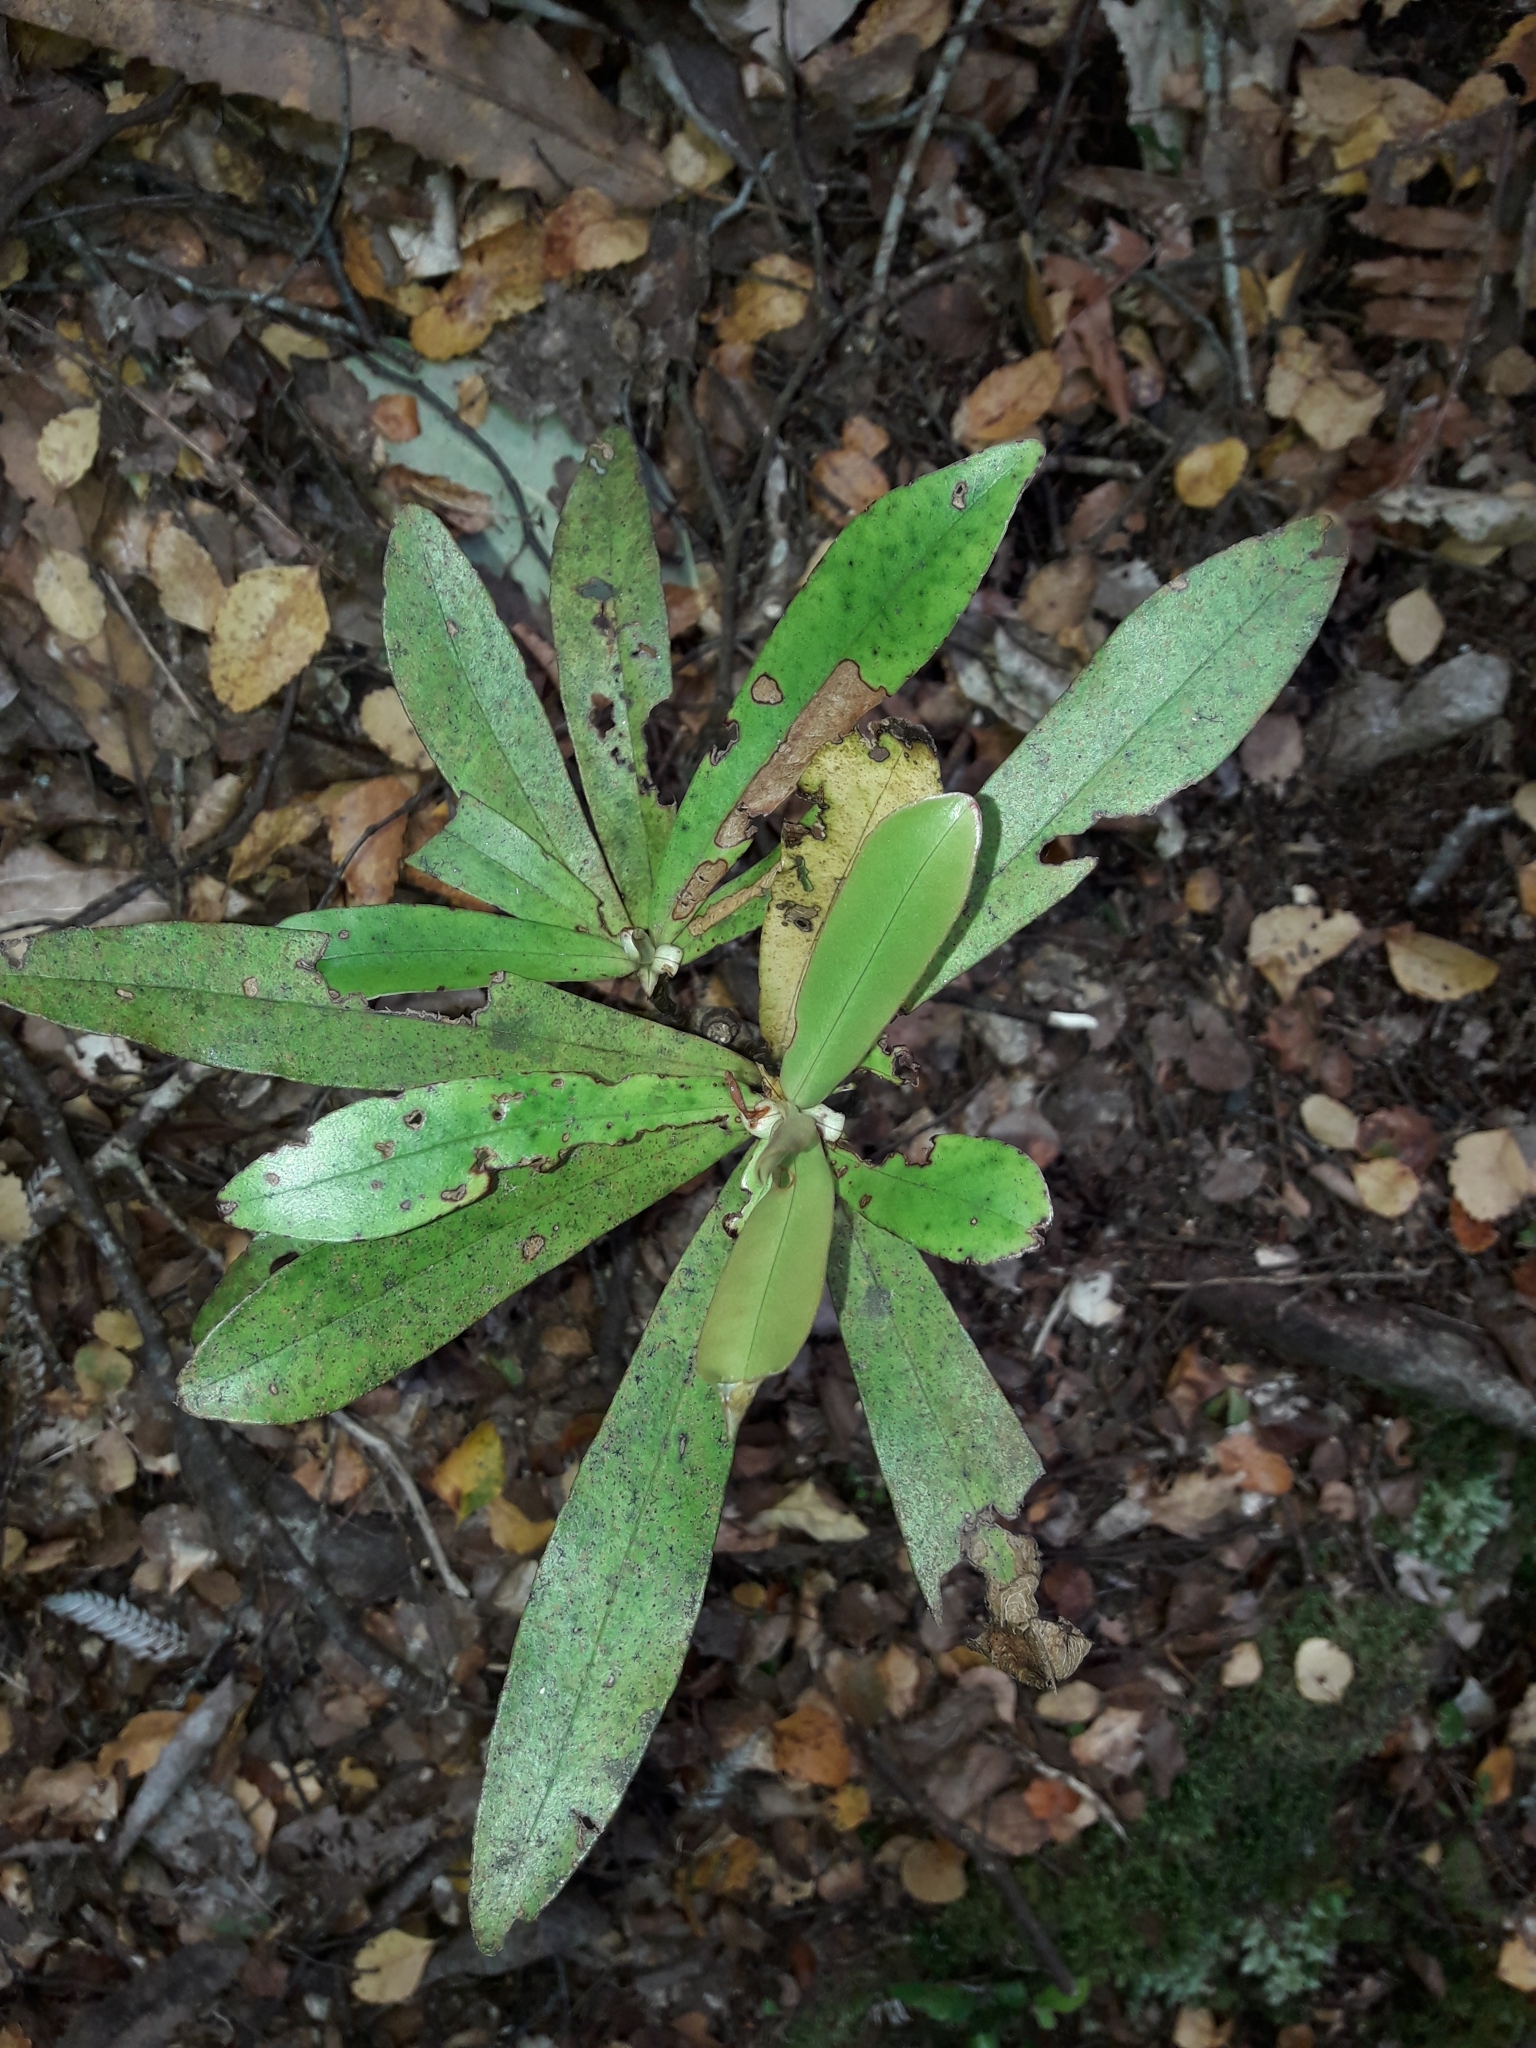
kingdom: Plantae
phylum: Tracheophyta
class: Magnoliopsida
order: Ericales
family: Primulaceae
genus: Myrsine
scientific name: Myrsine salicina
